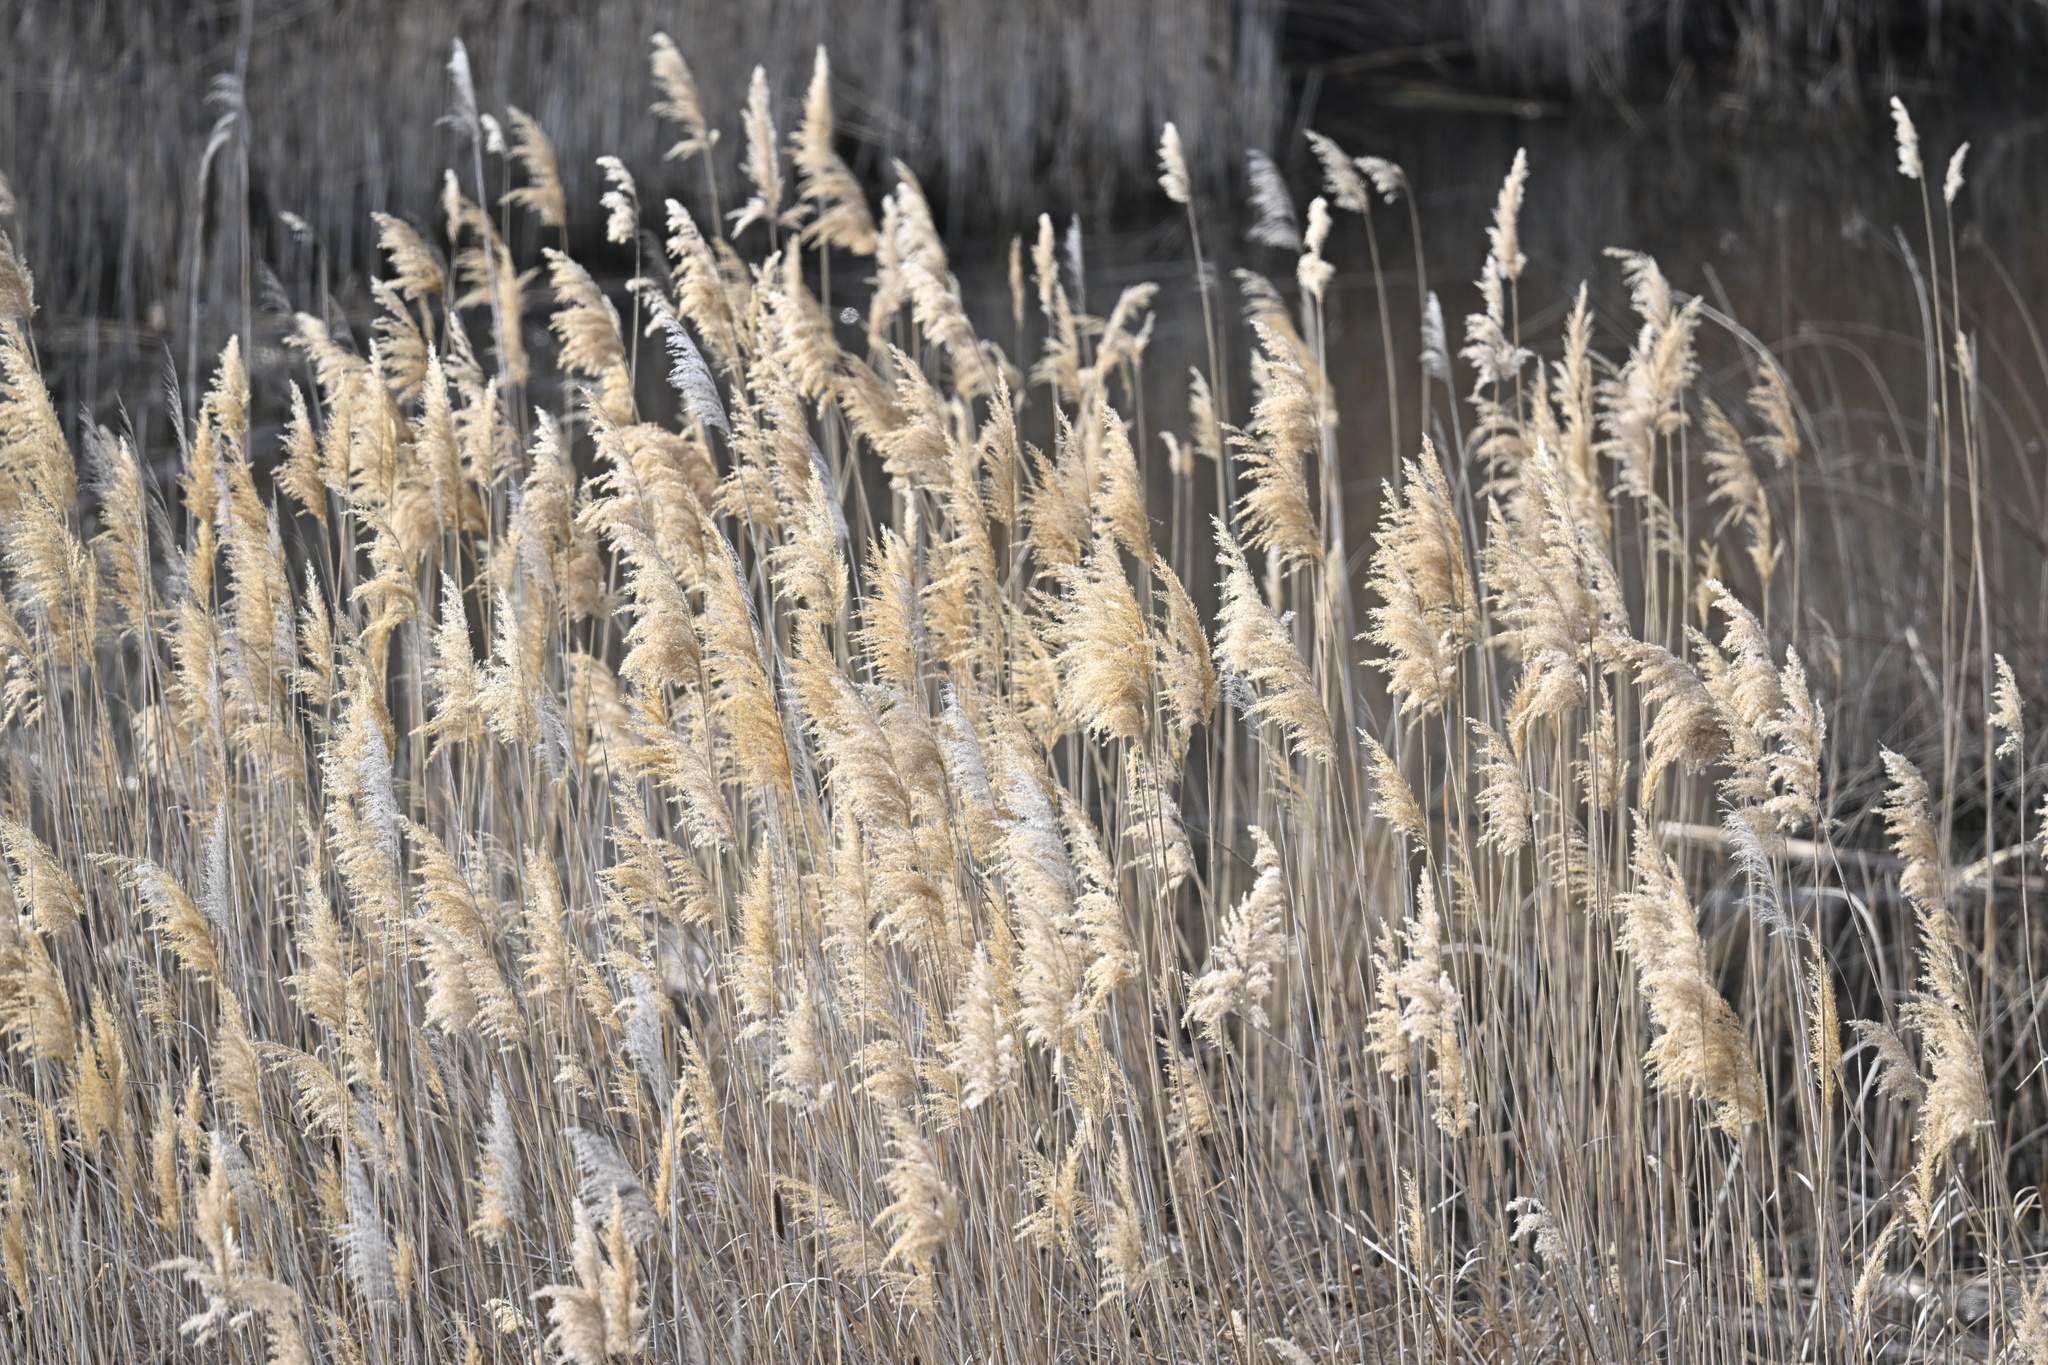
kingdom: Plantae
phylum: Tracheophyta
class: Liliopsida
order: Poales
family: Poaceae
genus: Phragmites
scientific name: Phragmites australis
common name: Common reed
